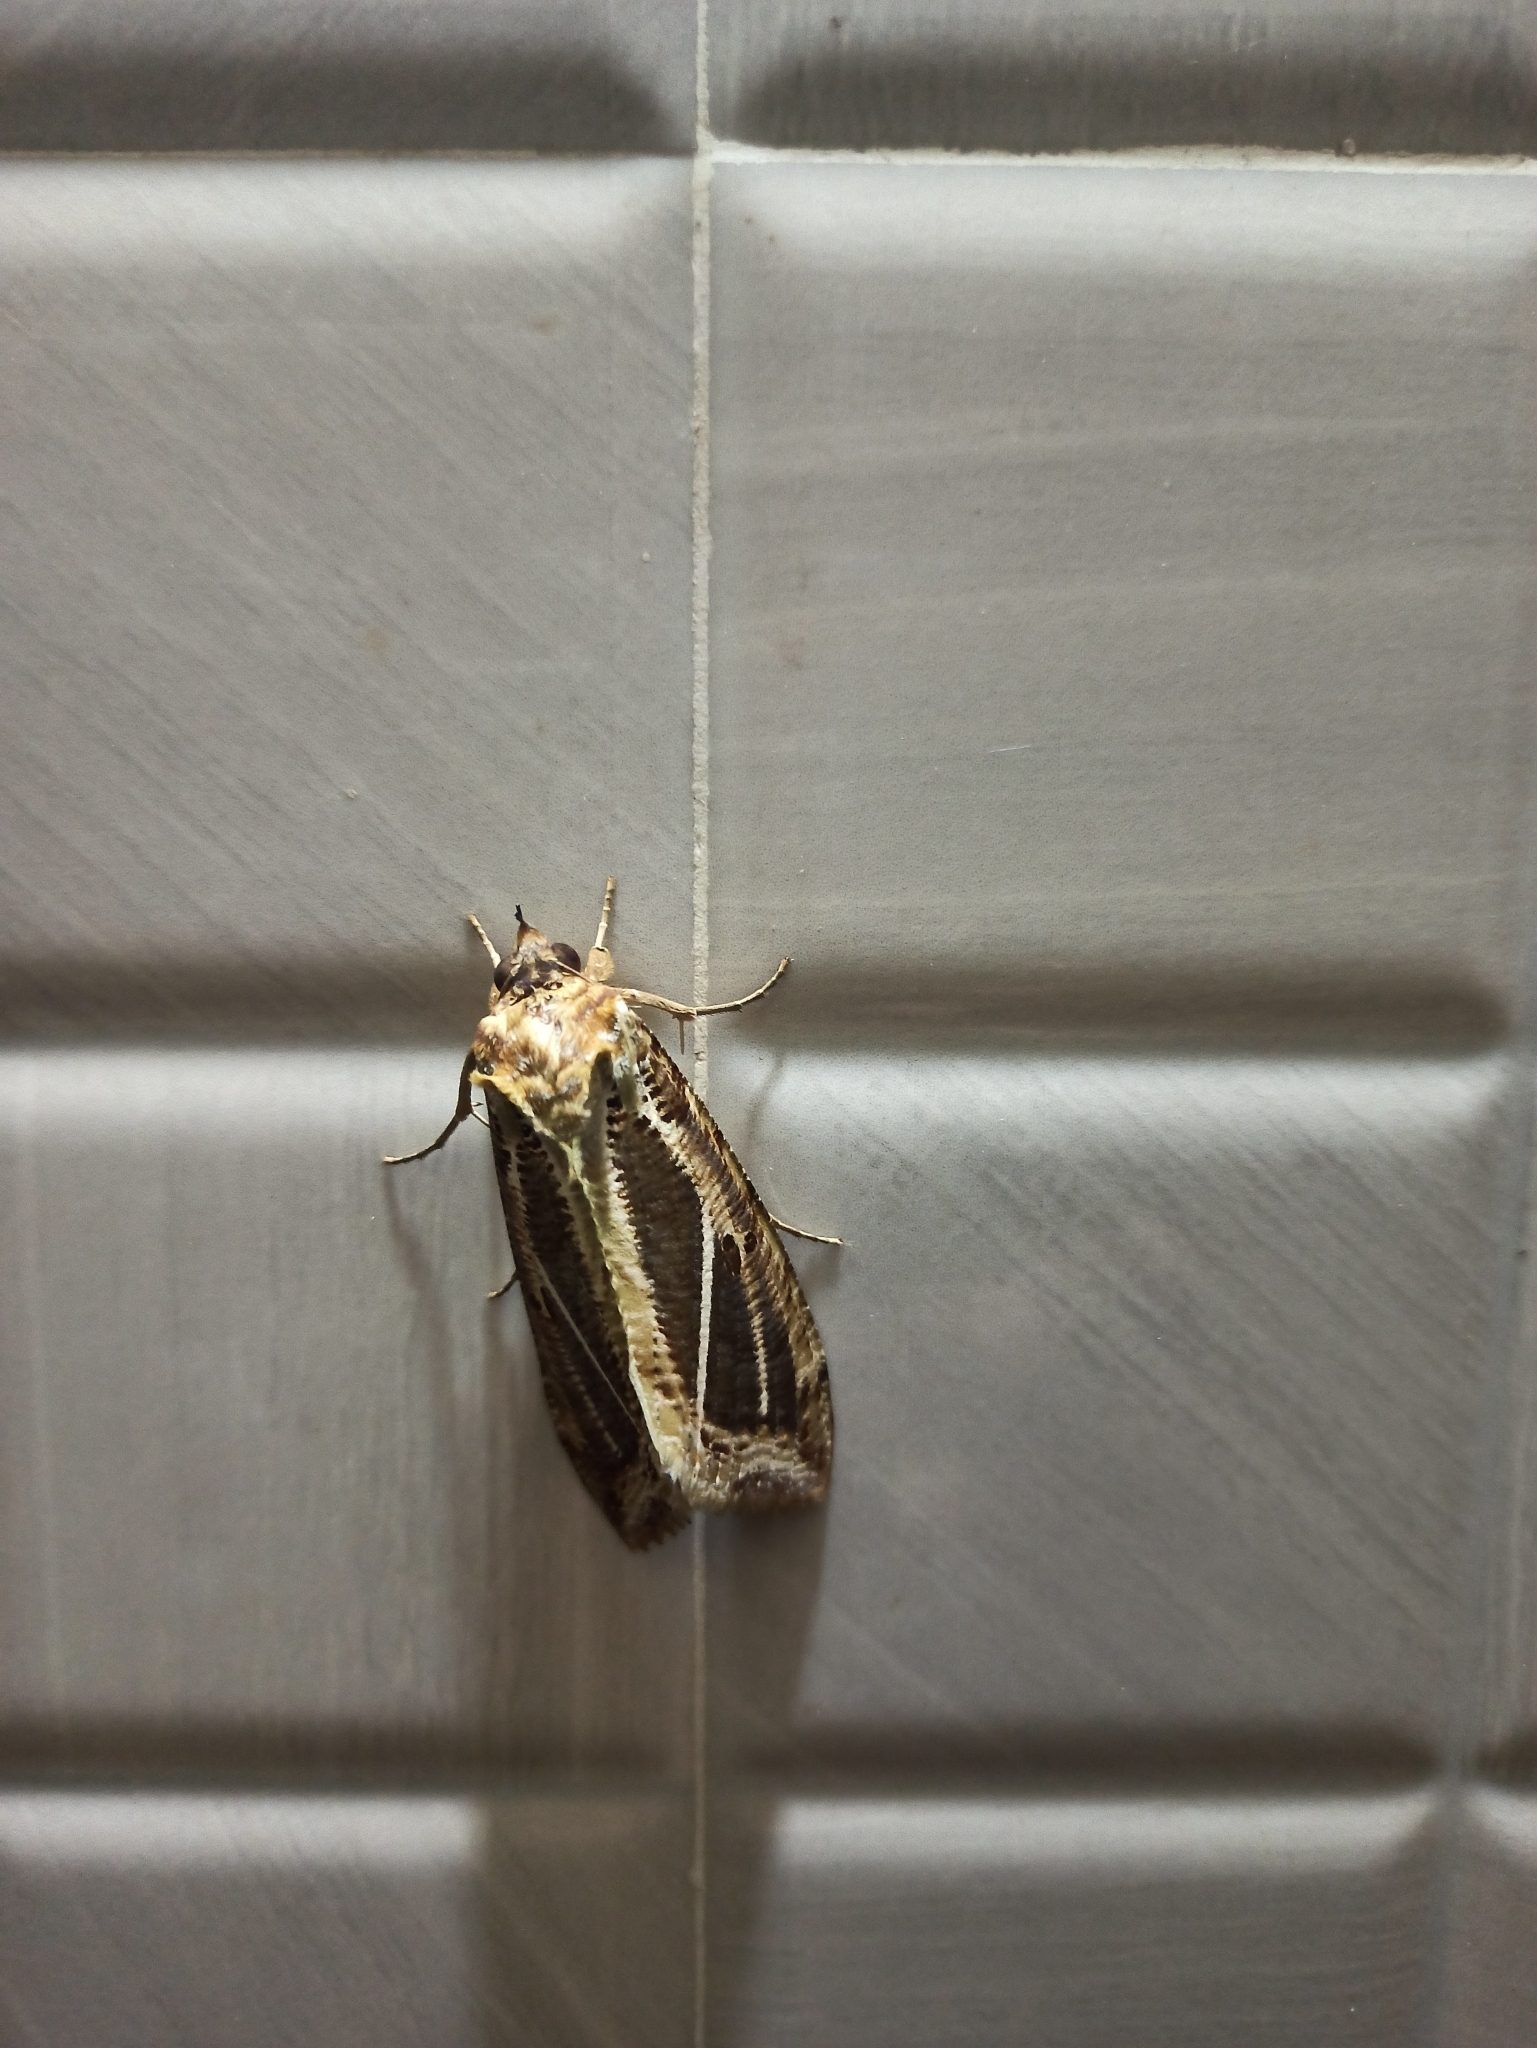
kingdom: Animalia
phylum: Arthropoda
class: Insecta
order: Lepidoptera
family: Erebidae
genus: Eudocima
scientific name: Eudocima materna
